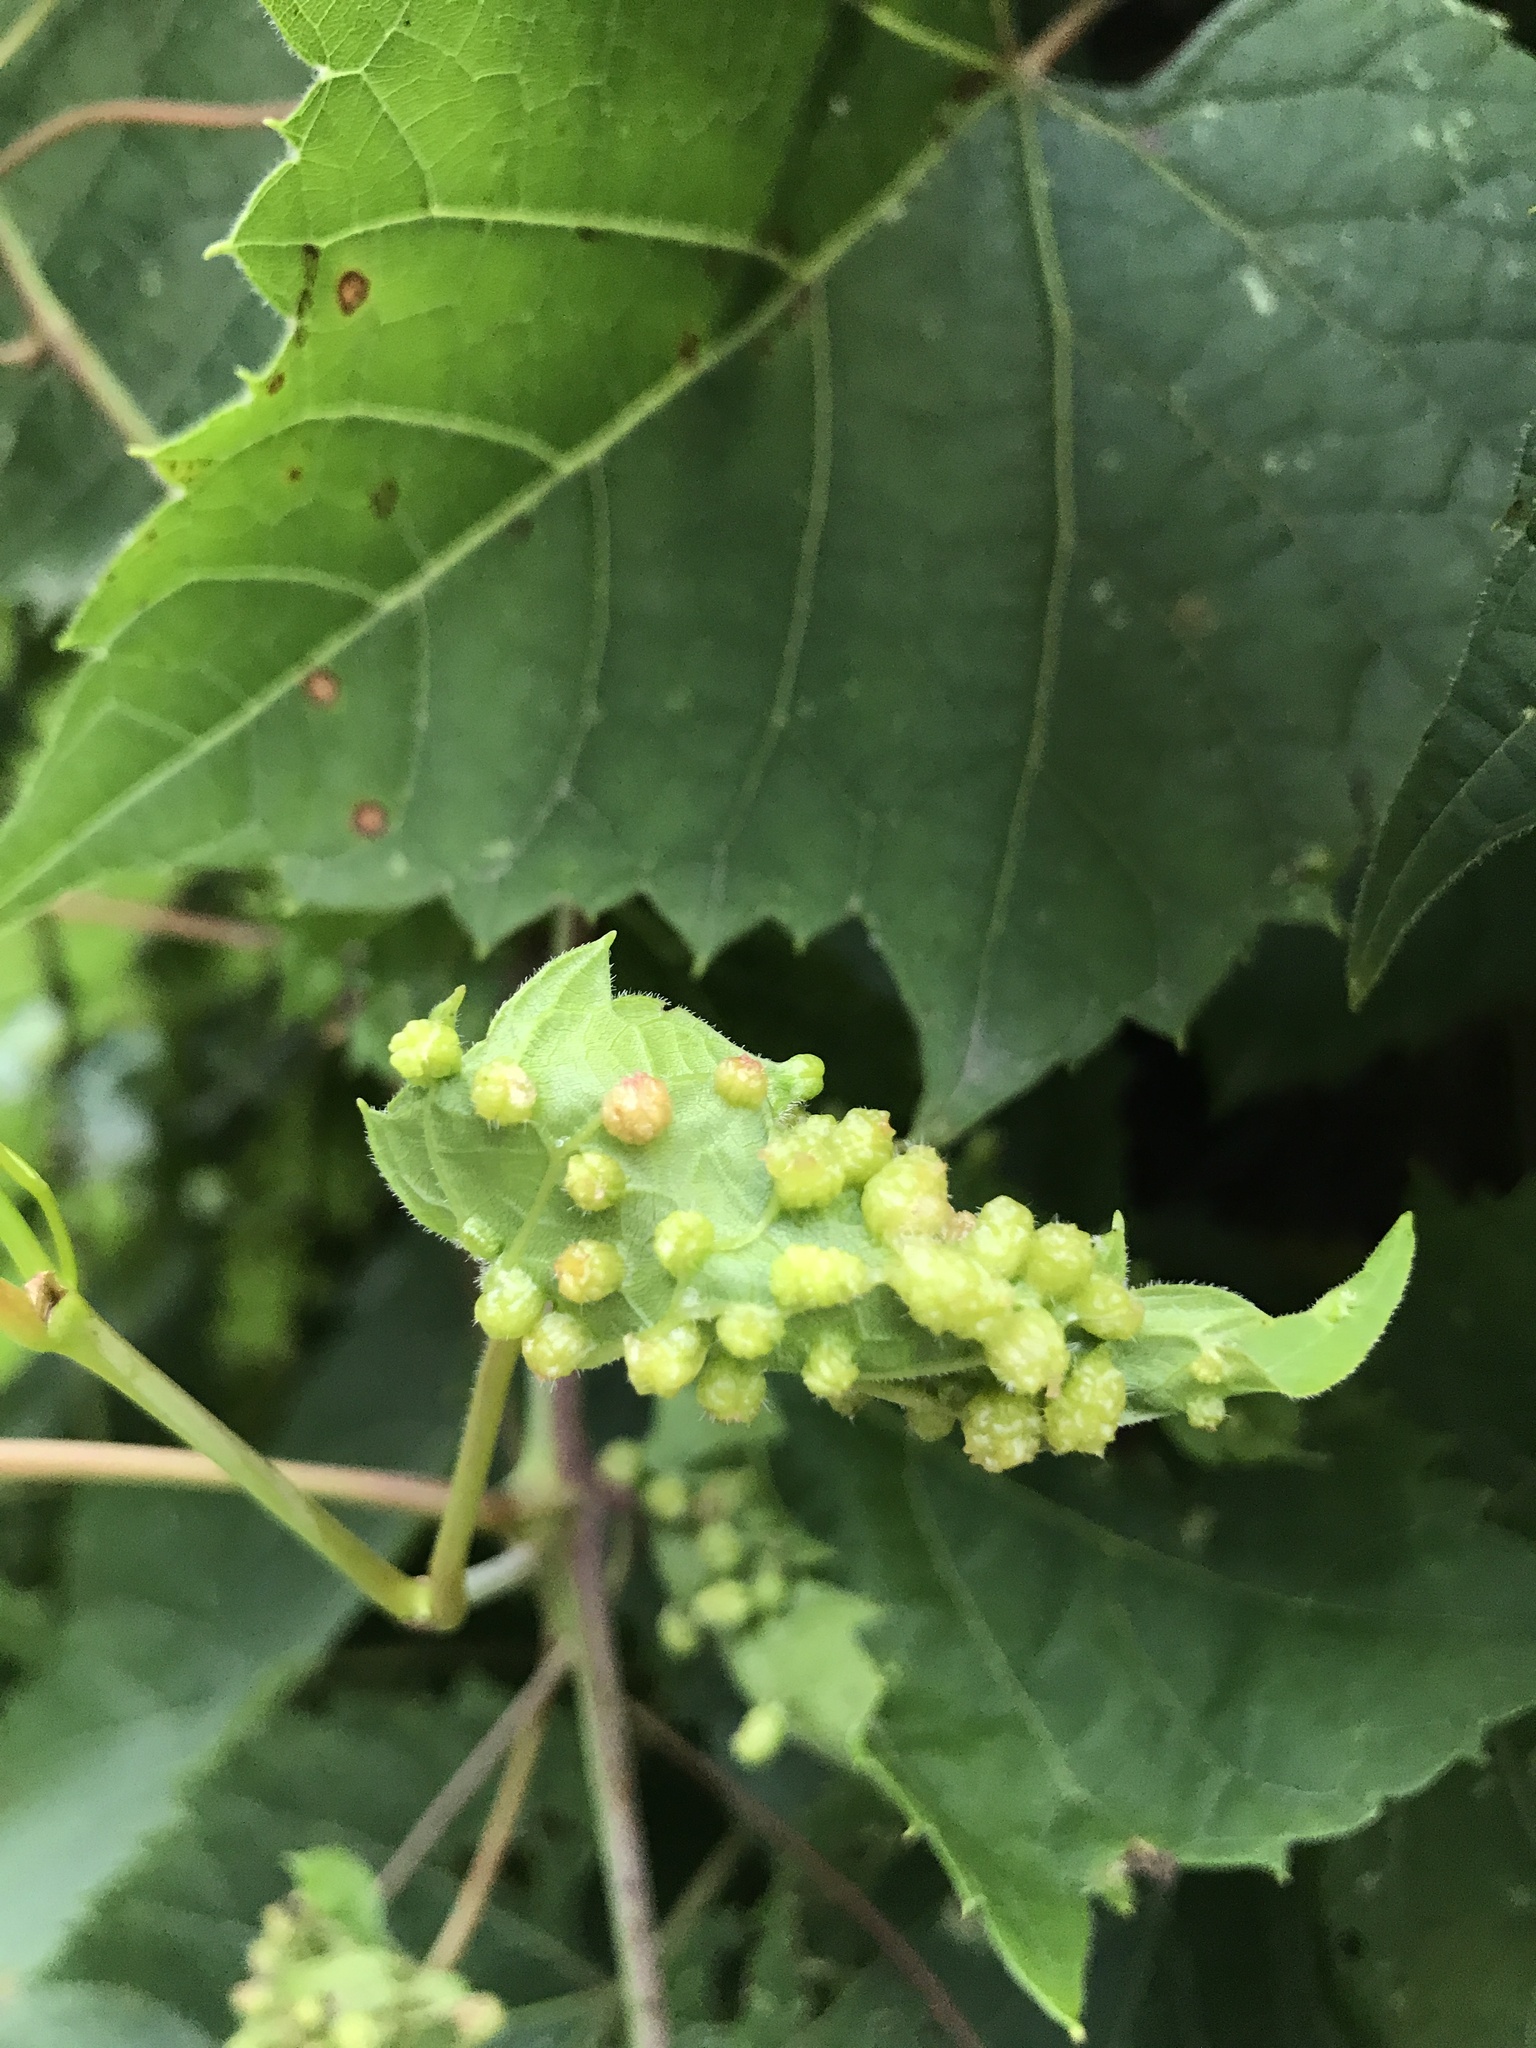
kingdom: Animalia
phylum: Arthropoda
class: Insecta
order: Hemiptera
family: Phylloxeridae
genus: Daktulosphaira
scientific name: Daktulosphaira vitifoliae
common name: Grape phylloxera
